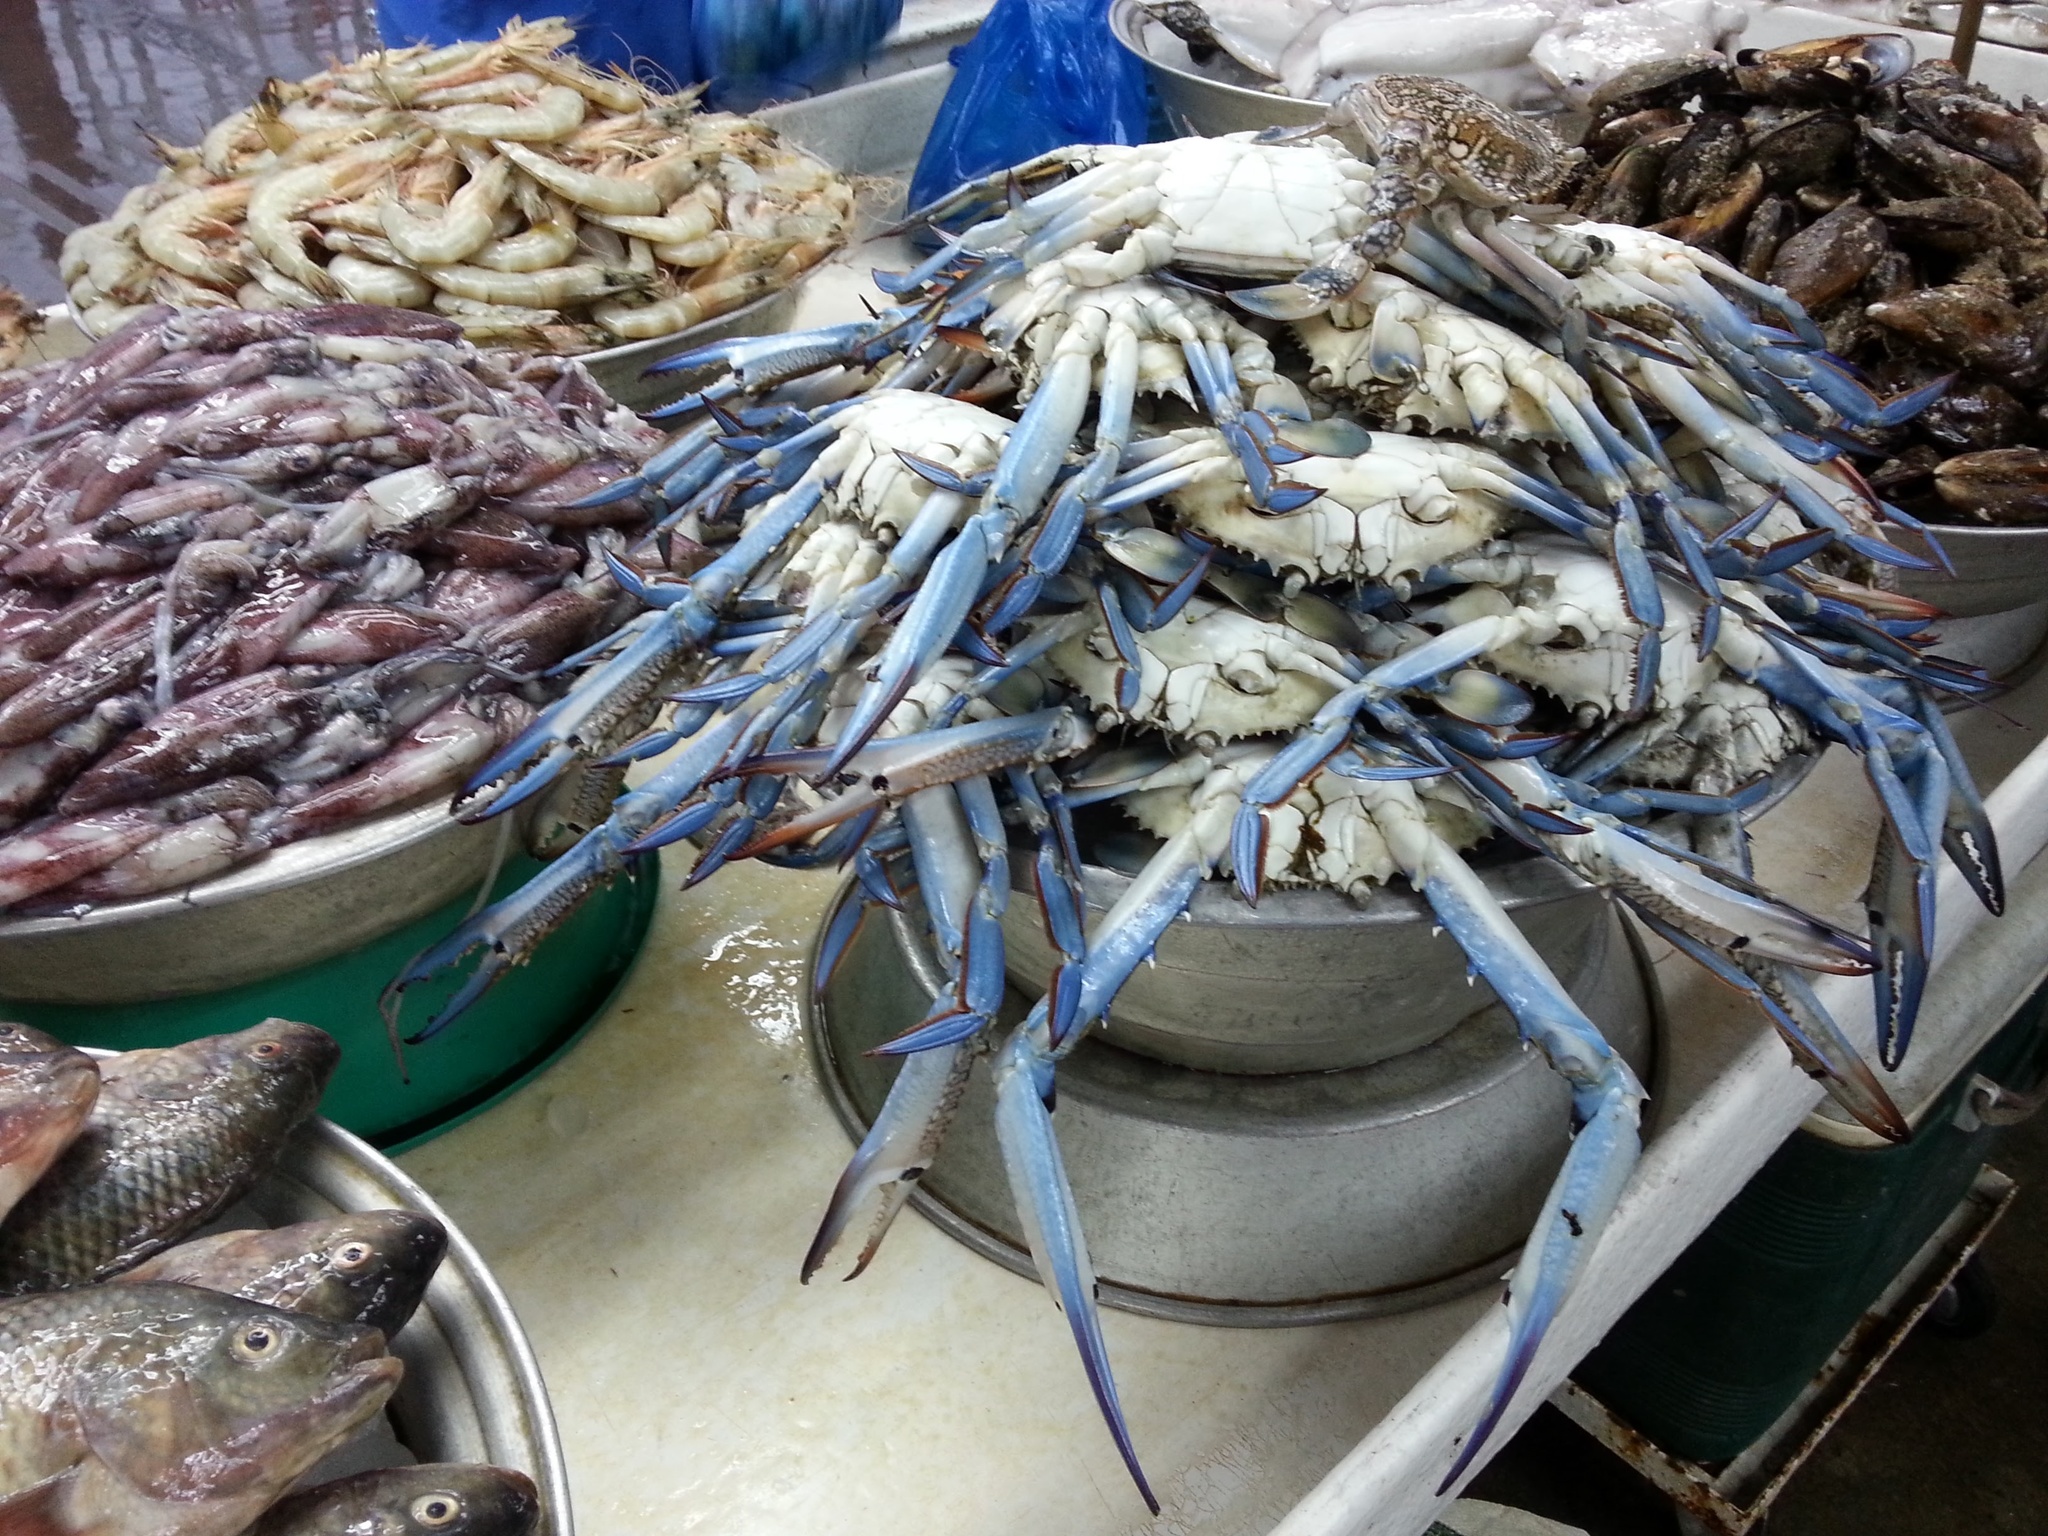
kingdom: Animalia
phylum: Arthropoda
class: Malacostraca
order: Decapoda
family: Portunidae
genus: Portunus
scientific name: Portunus pelagicus
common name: Blue swimming crab
